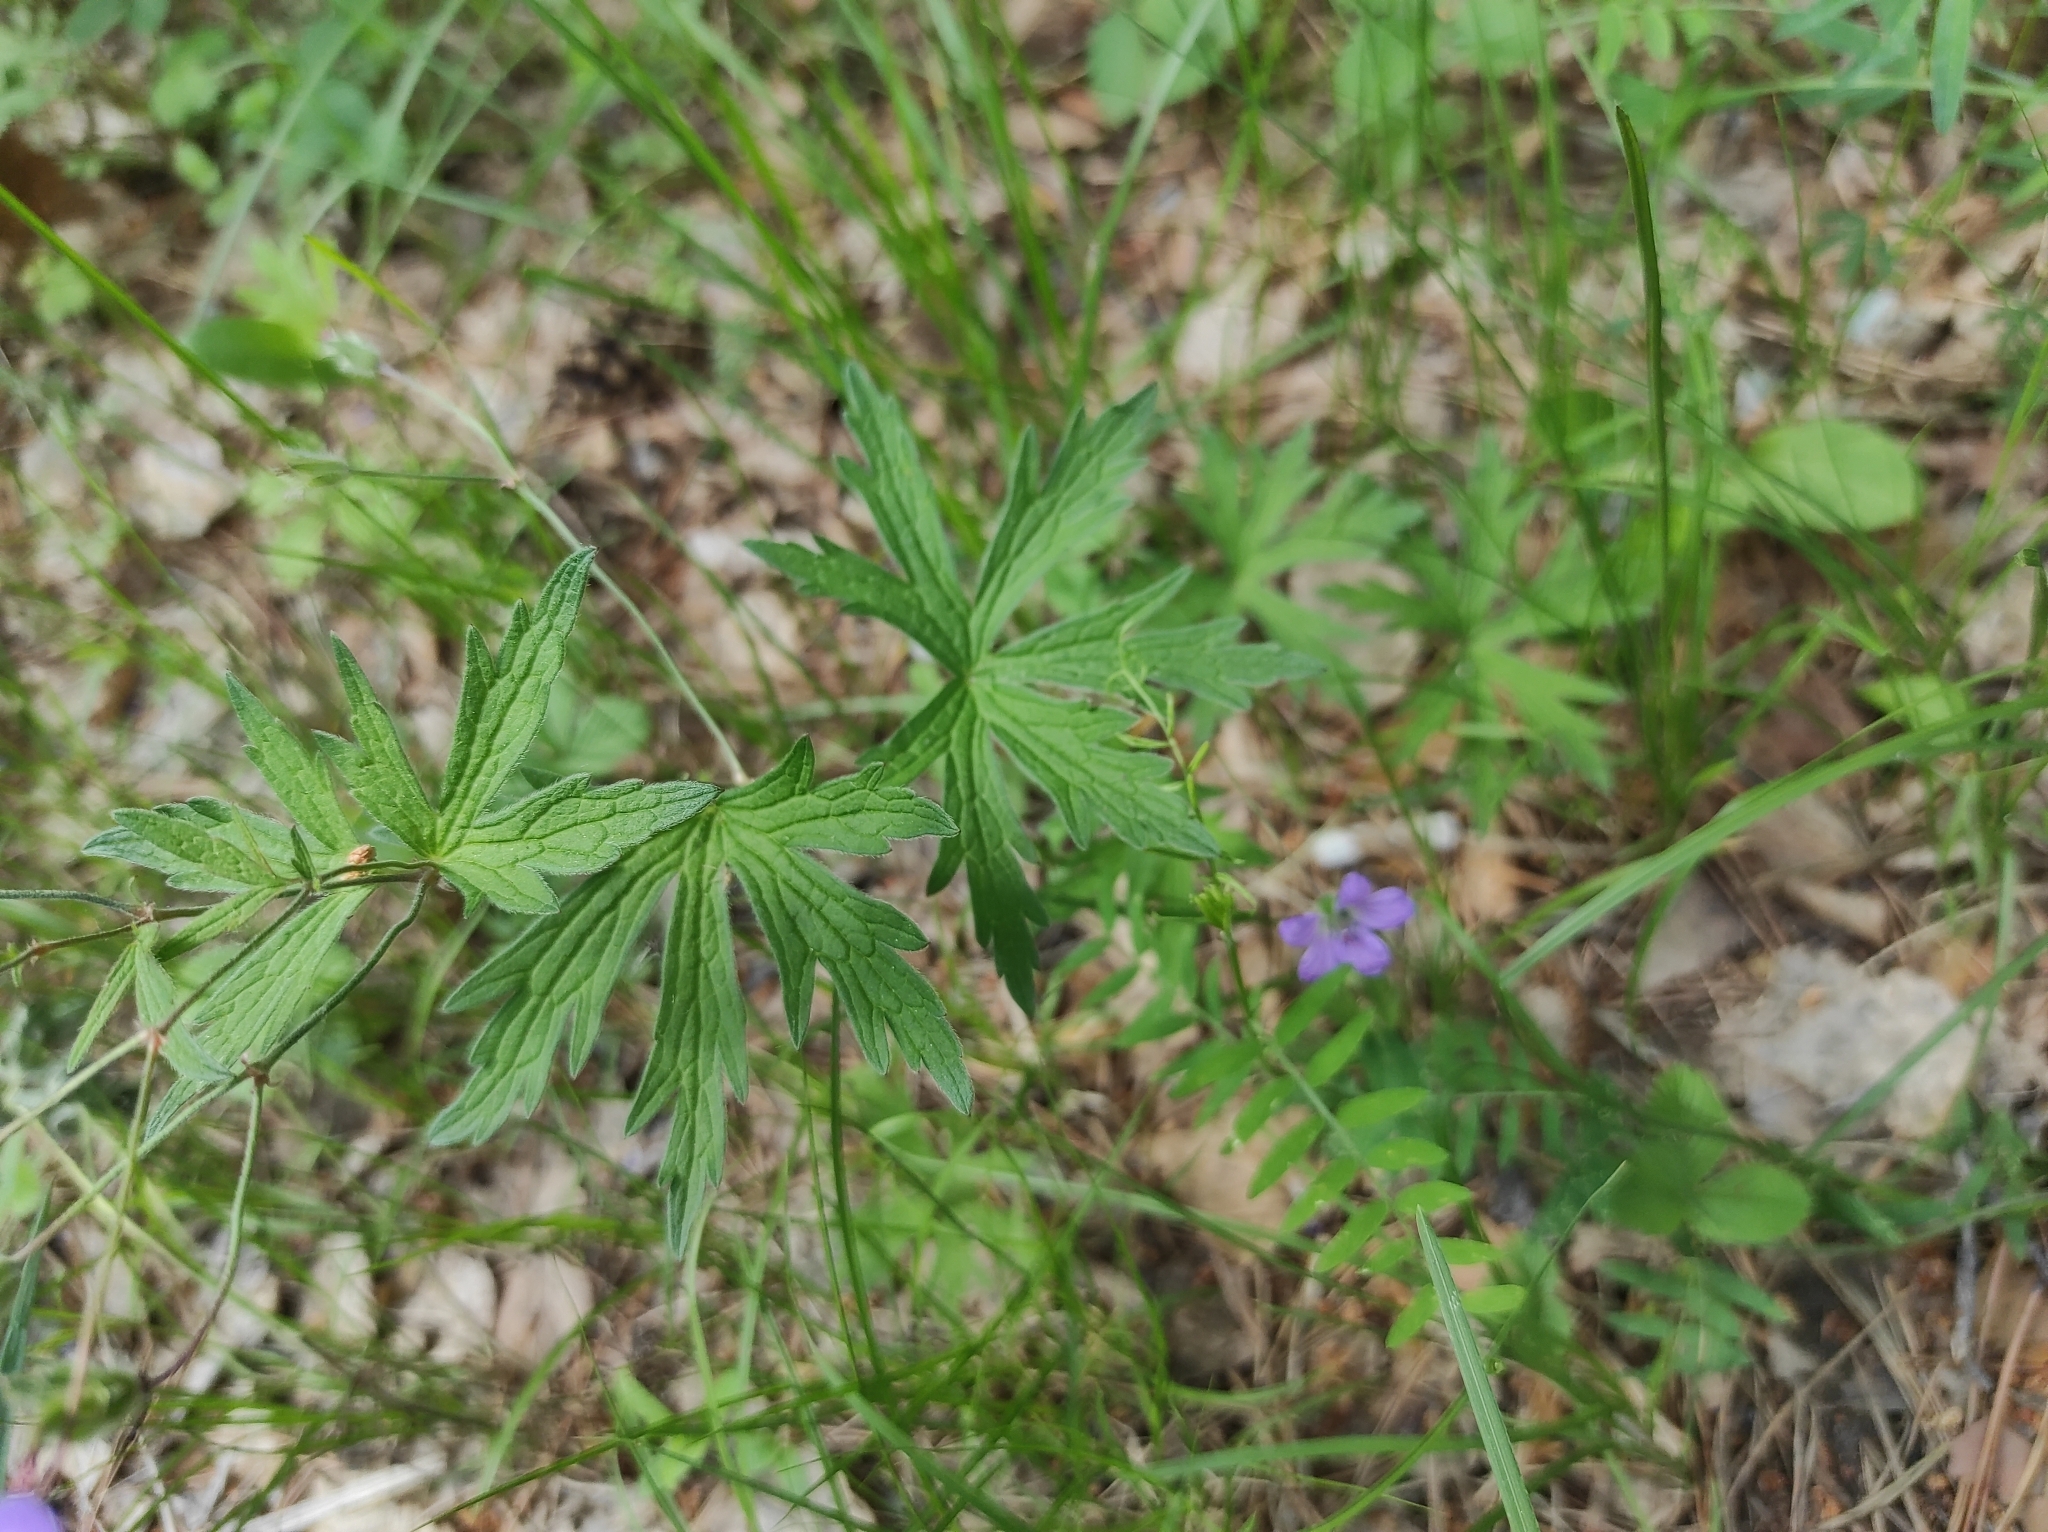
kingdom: Plantae
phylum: Tracheophyta
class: Magnoliopsida
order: Geraniales
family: Geraniaceae
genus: Geranium
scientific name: Geranium sylvaticum
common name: Wood crane's-bill
